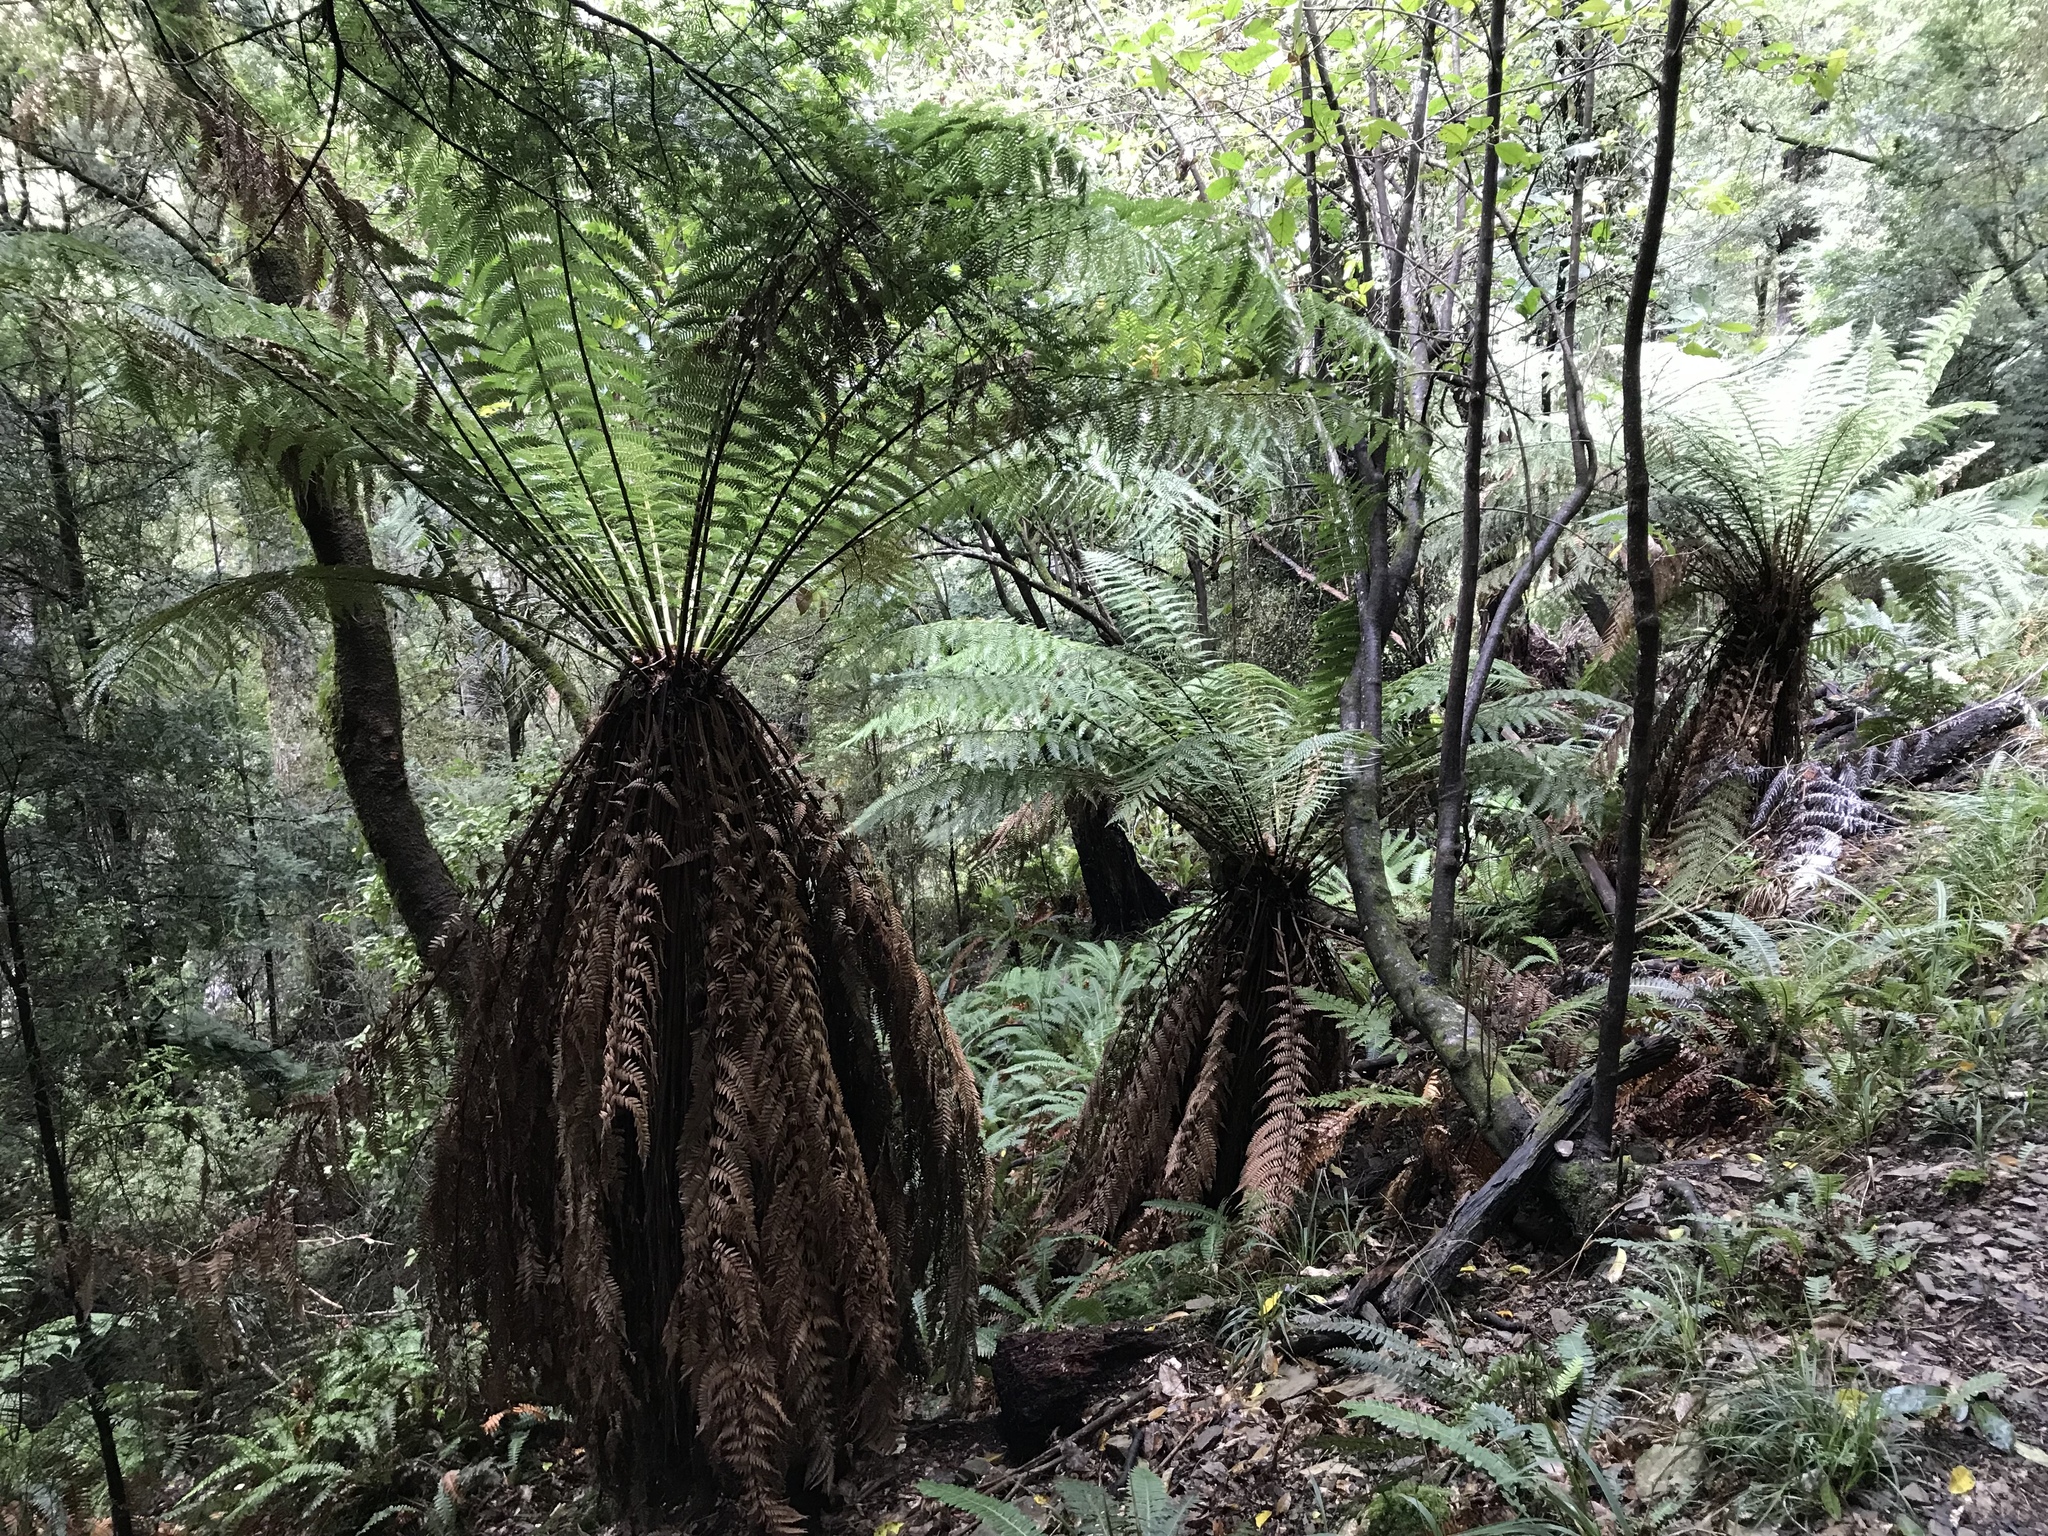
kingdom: Plantae
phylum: Tracheophyta
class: Polypodiopsida
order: Cyatheales
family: Dicksoniaceae
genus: Dicksonia
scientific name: Dicksonia fibrosa
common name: Golden tree fern
